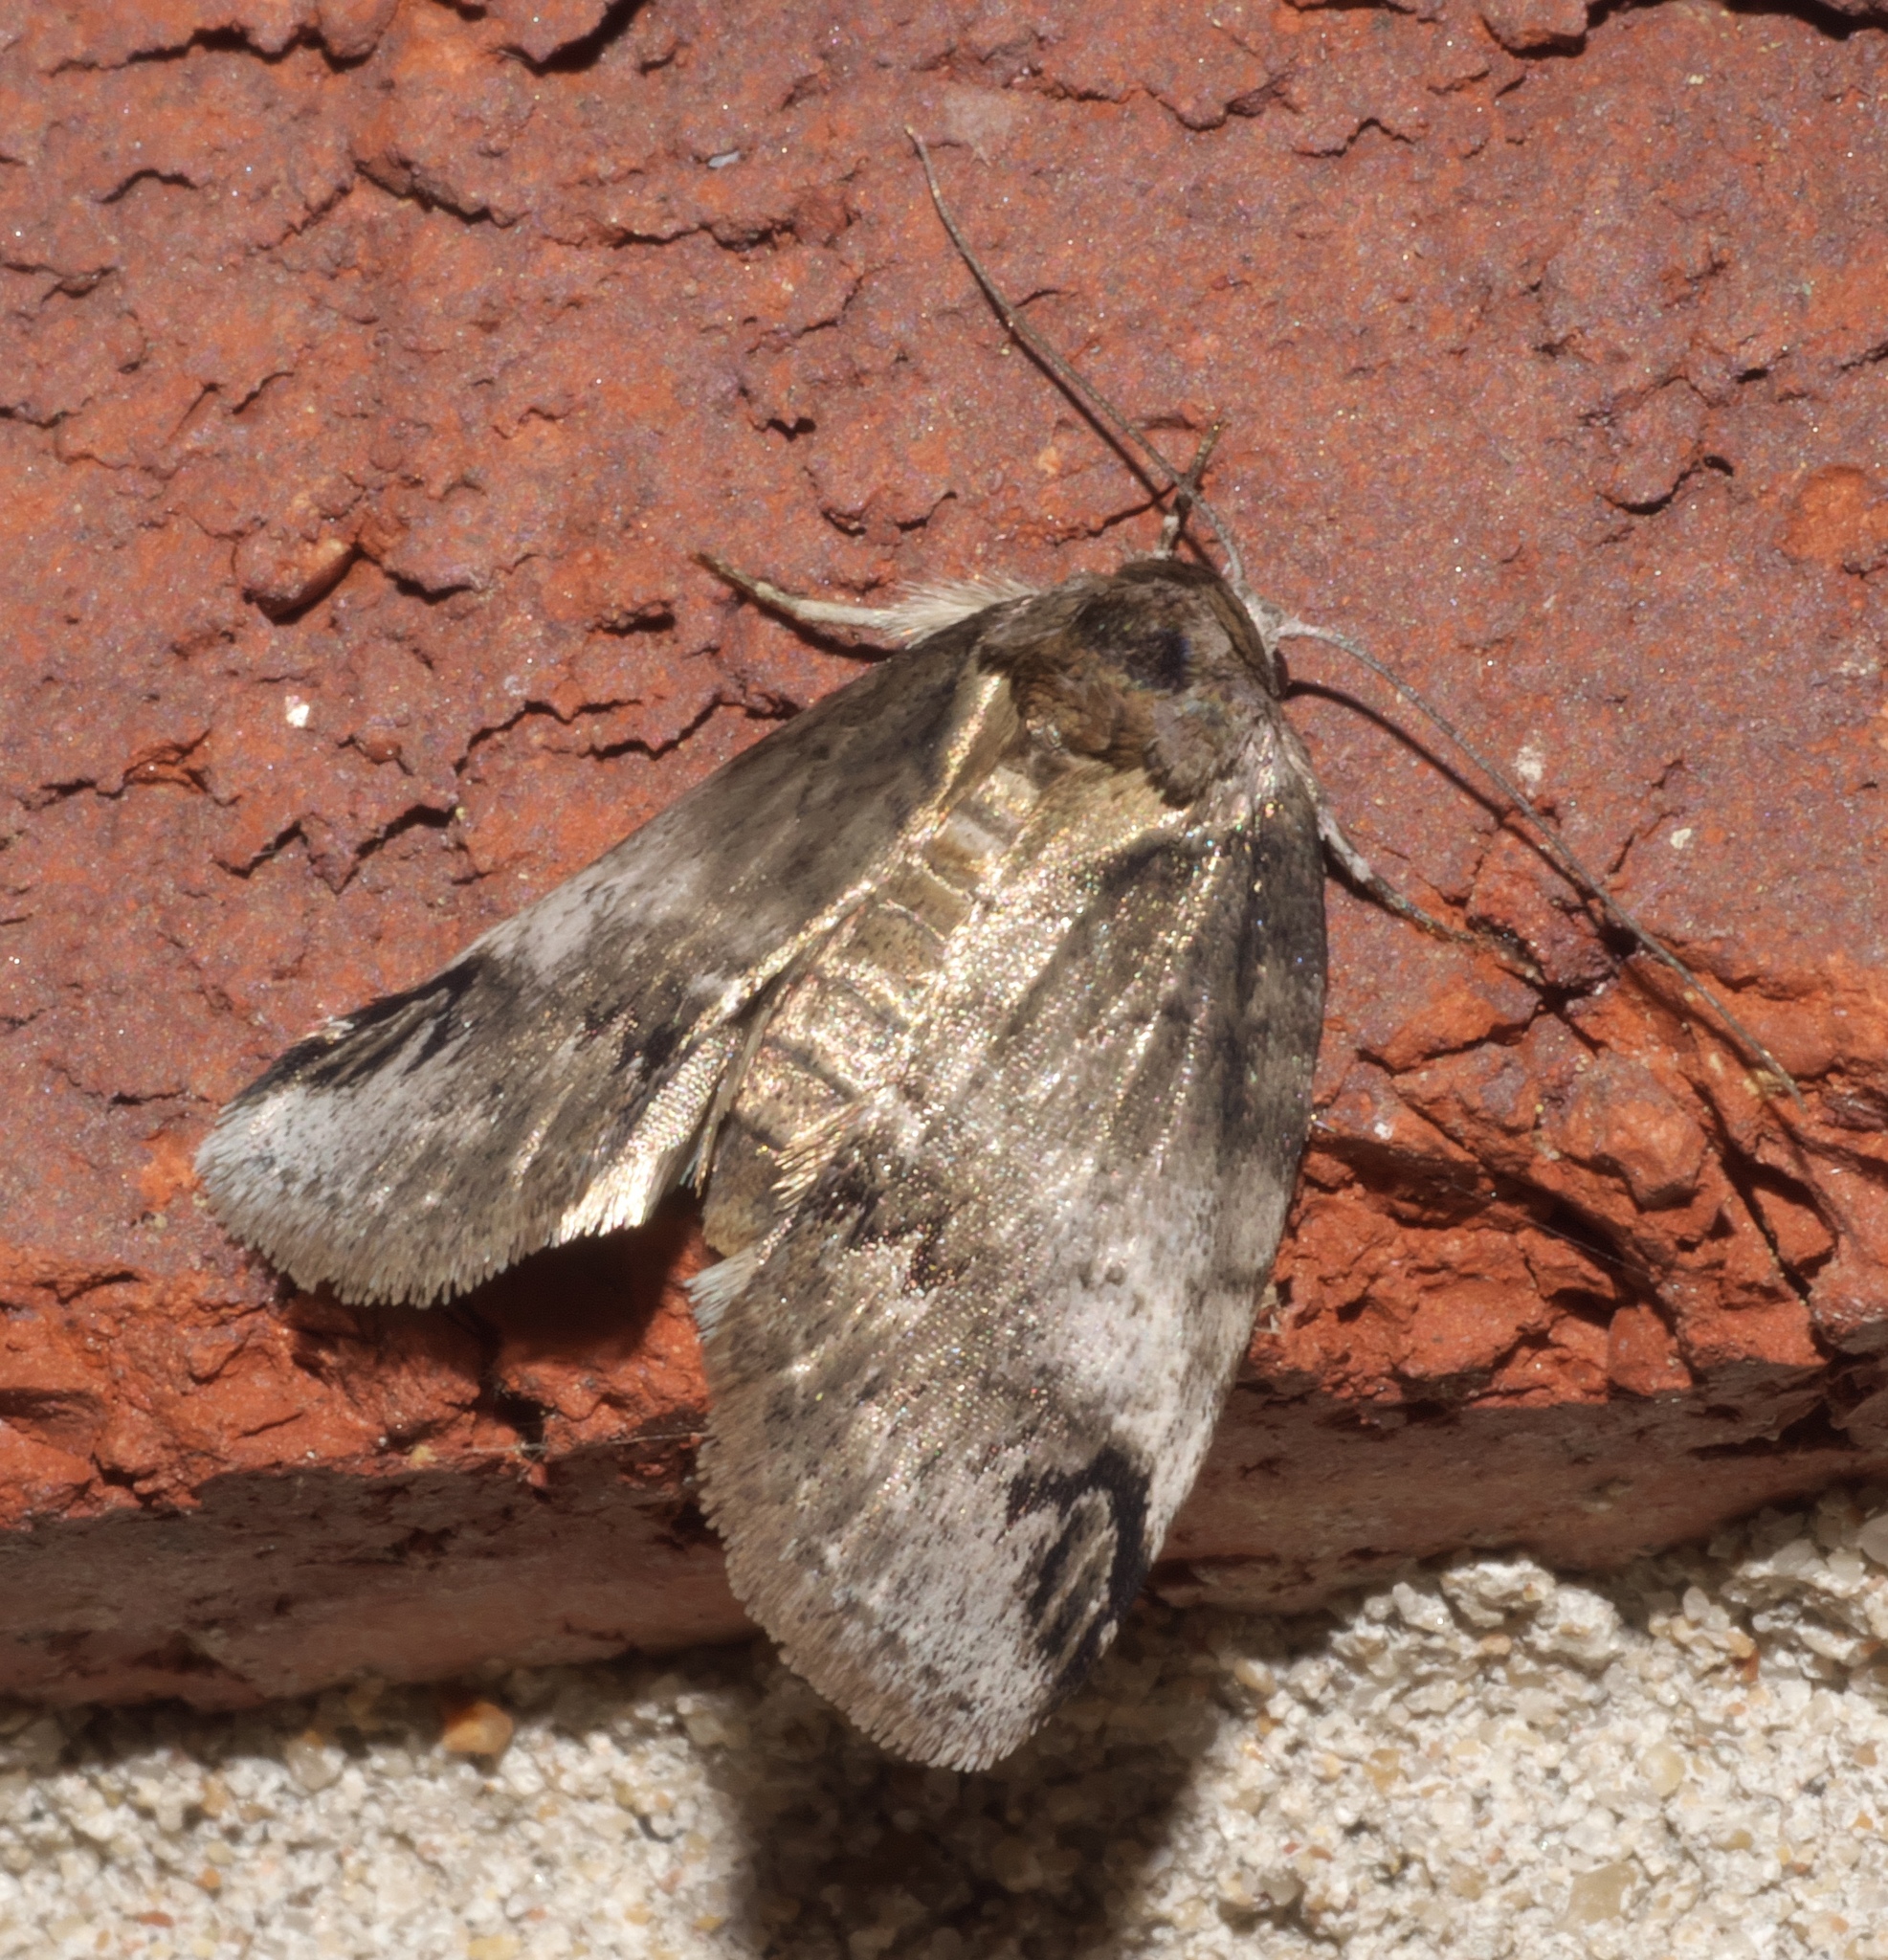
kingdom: Animalia
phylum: Arthropoda
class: Insecta
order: Lepidoptera
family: Nolidae
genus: Baileya
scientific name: Baileya dormitans
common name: Sleeping baileya moth
